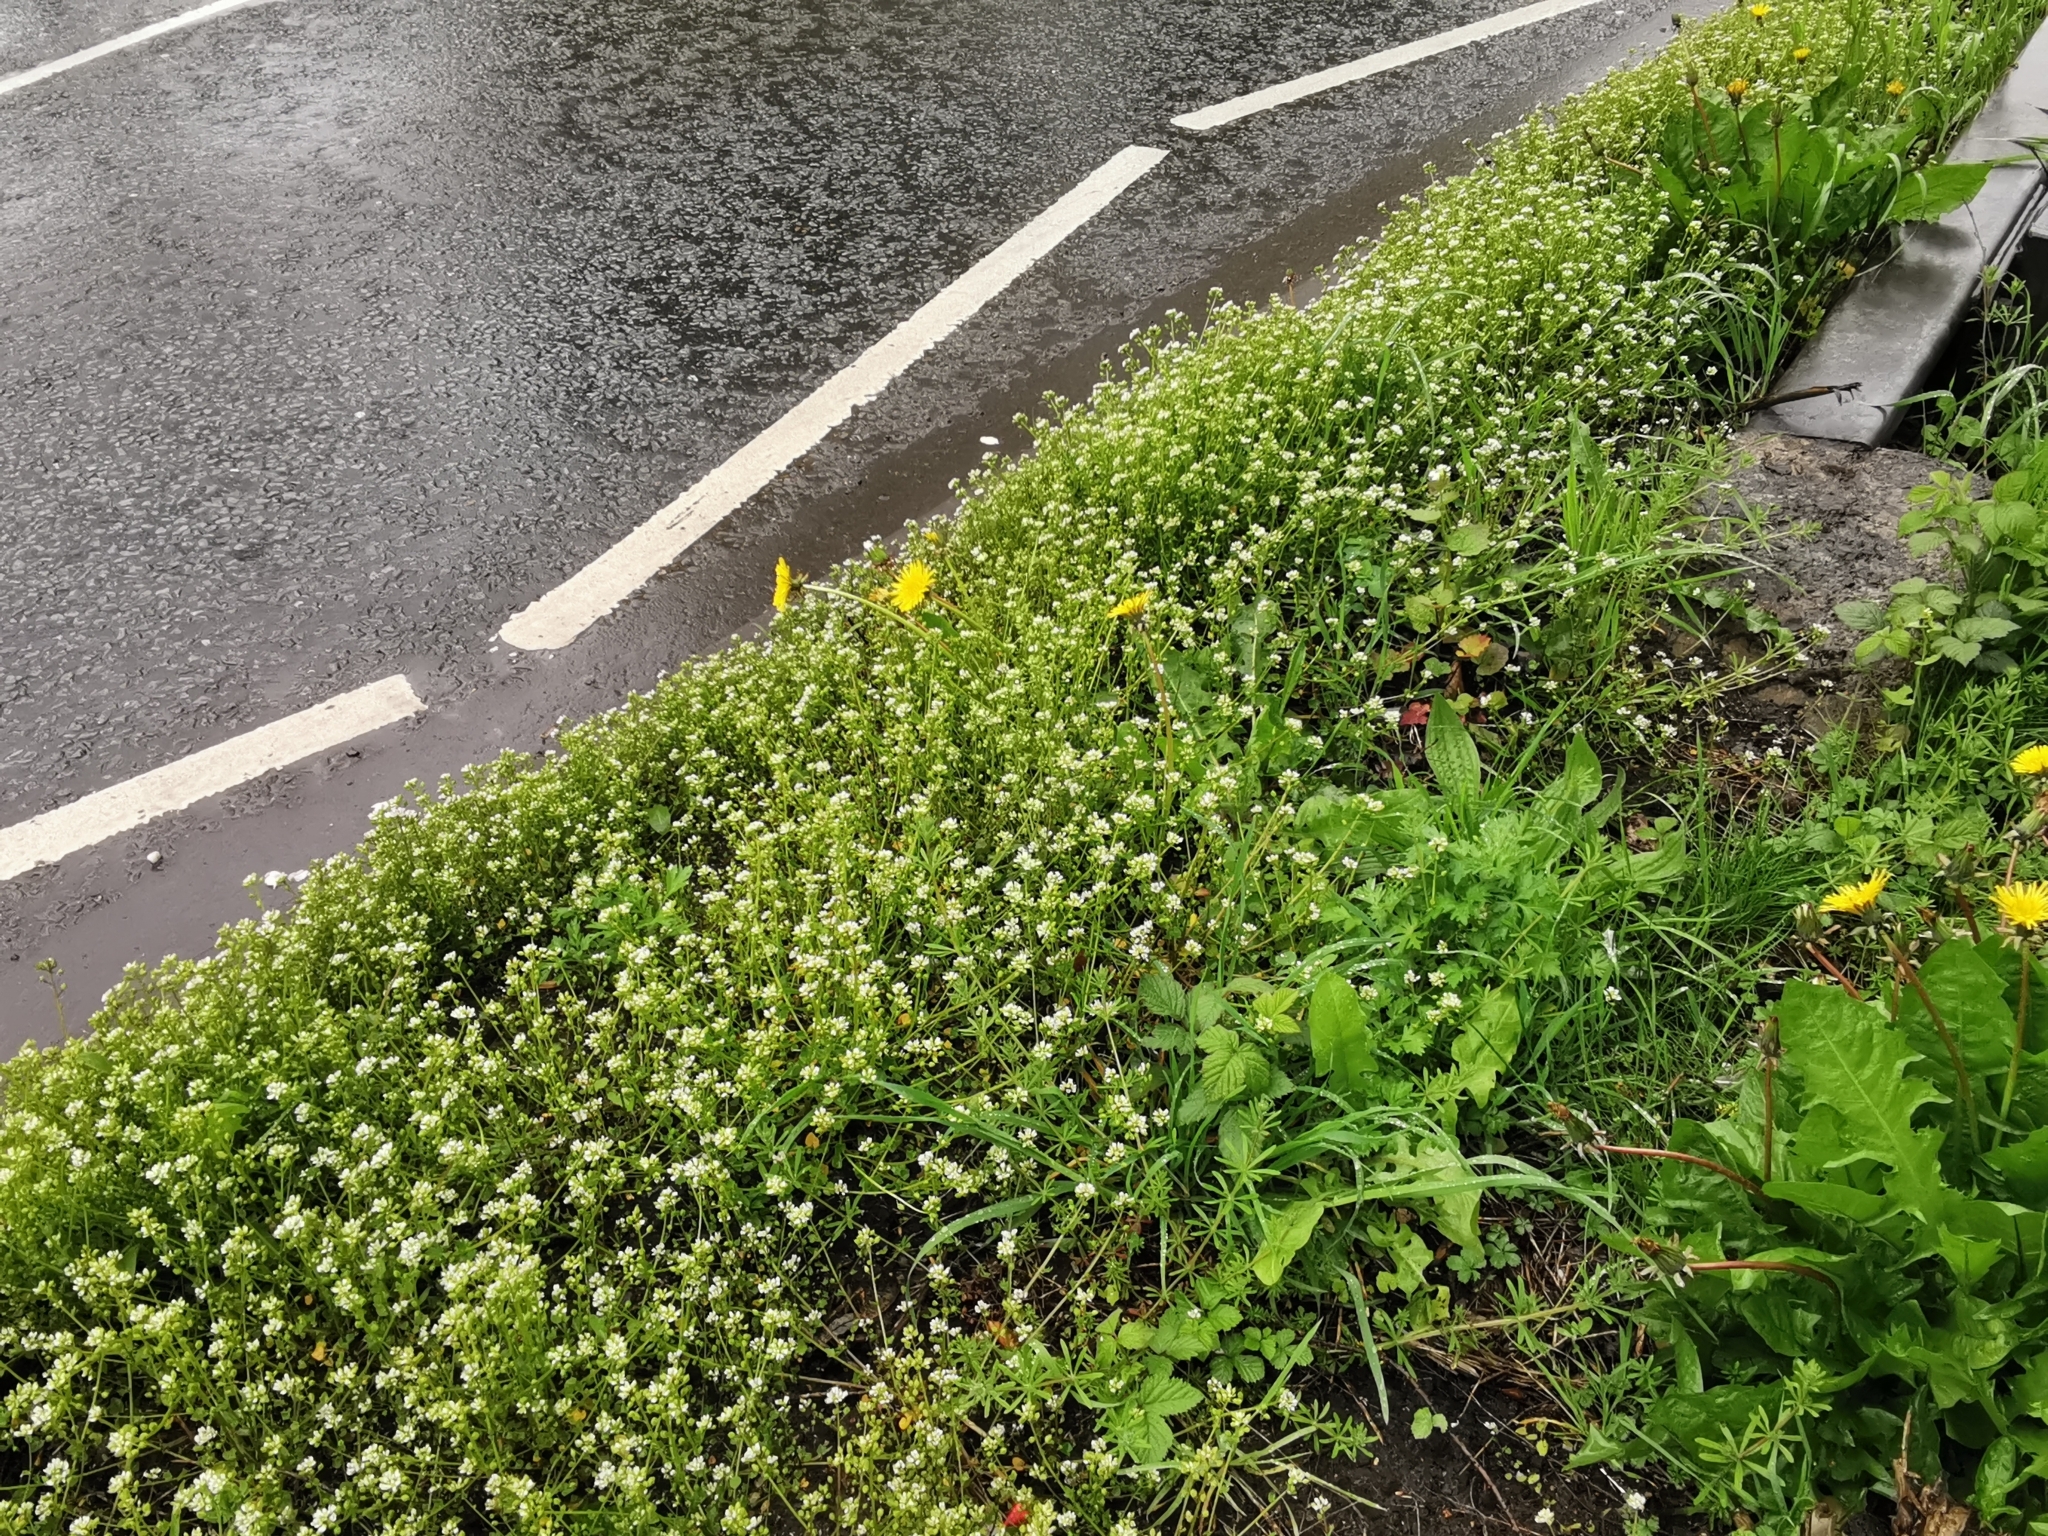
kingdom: Plantae
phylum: Tracheophyta
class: Magnoliopsida
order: Brassicales
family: Brassicaceae
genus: Cochlearia
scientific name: Cochlearia danica
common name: Early scurvygrass
